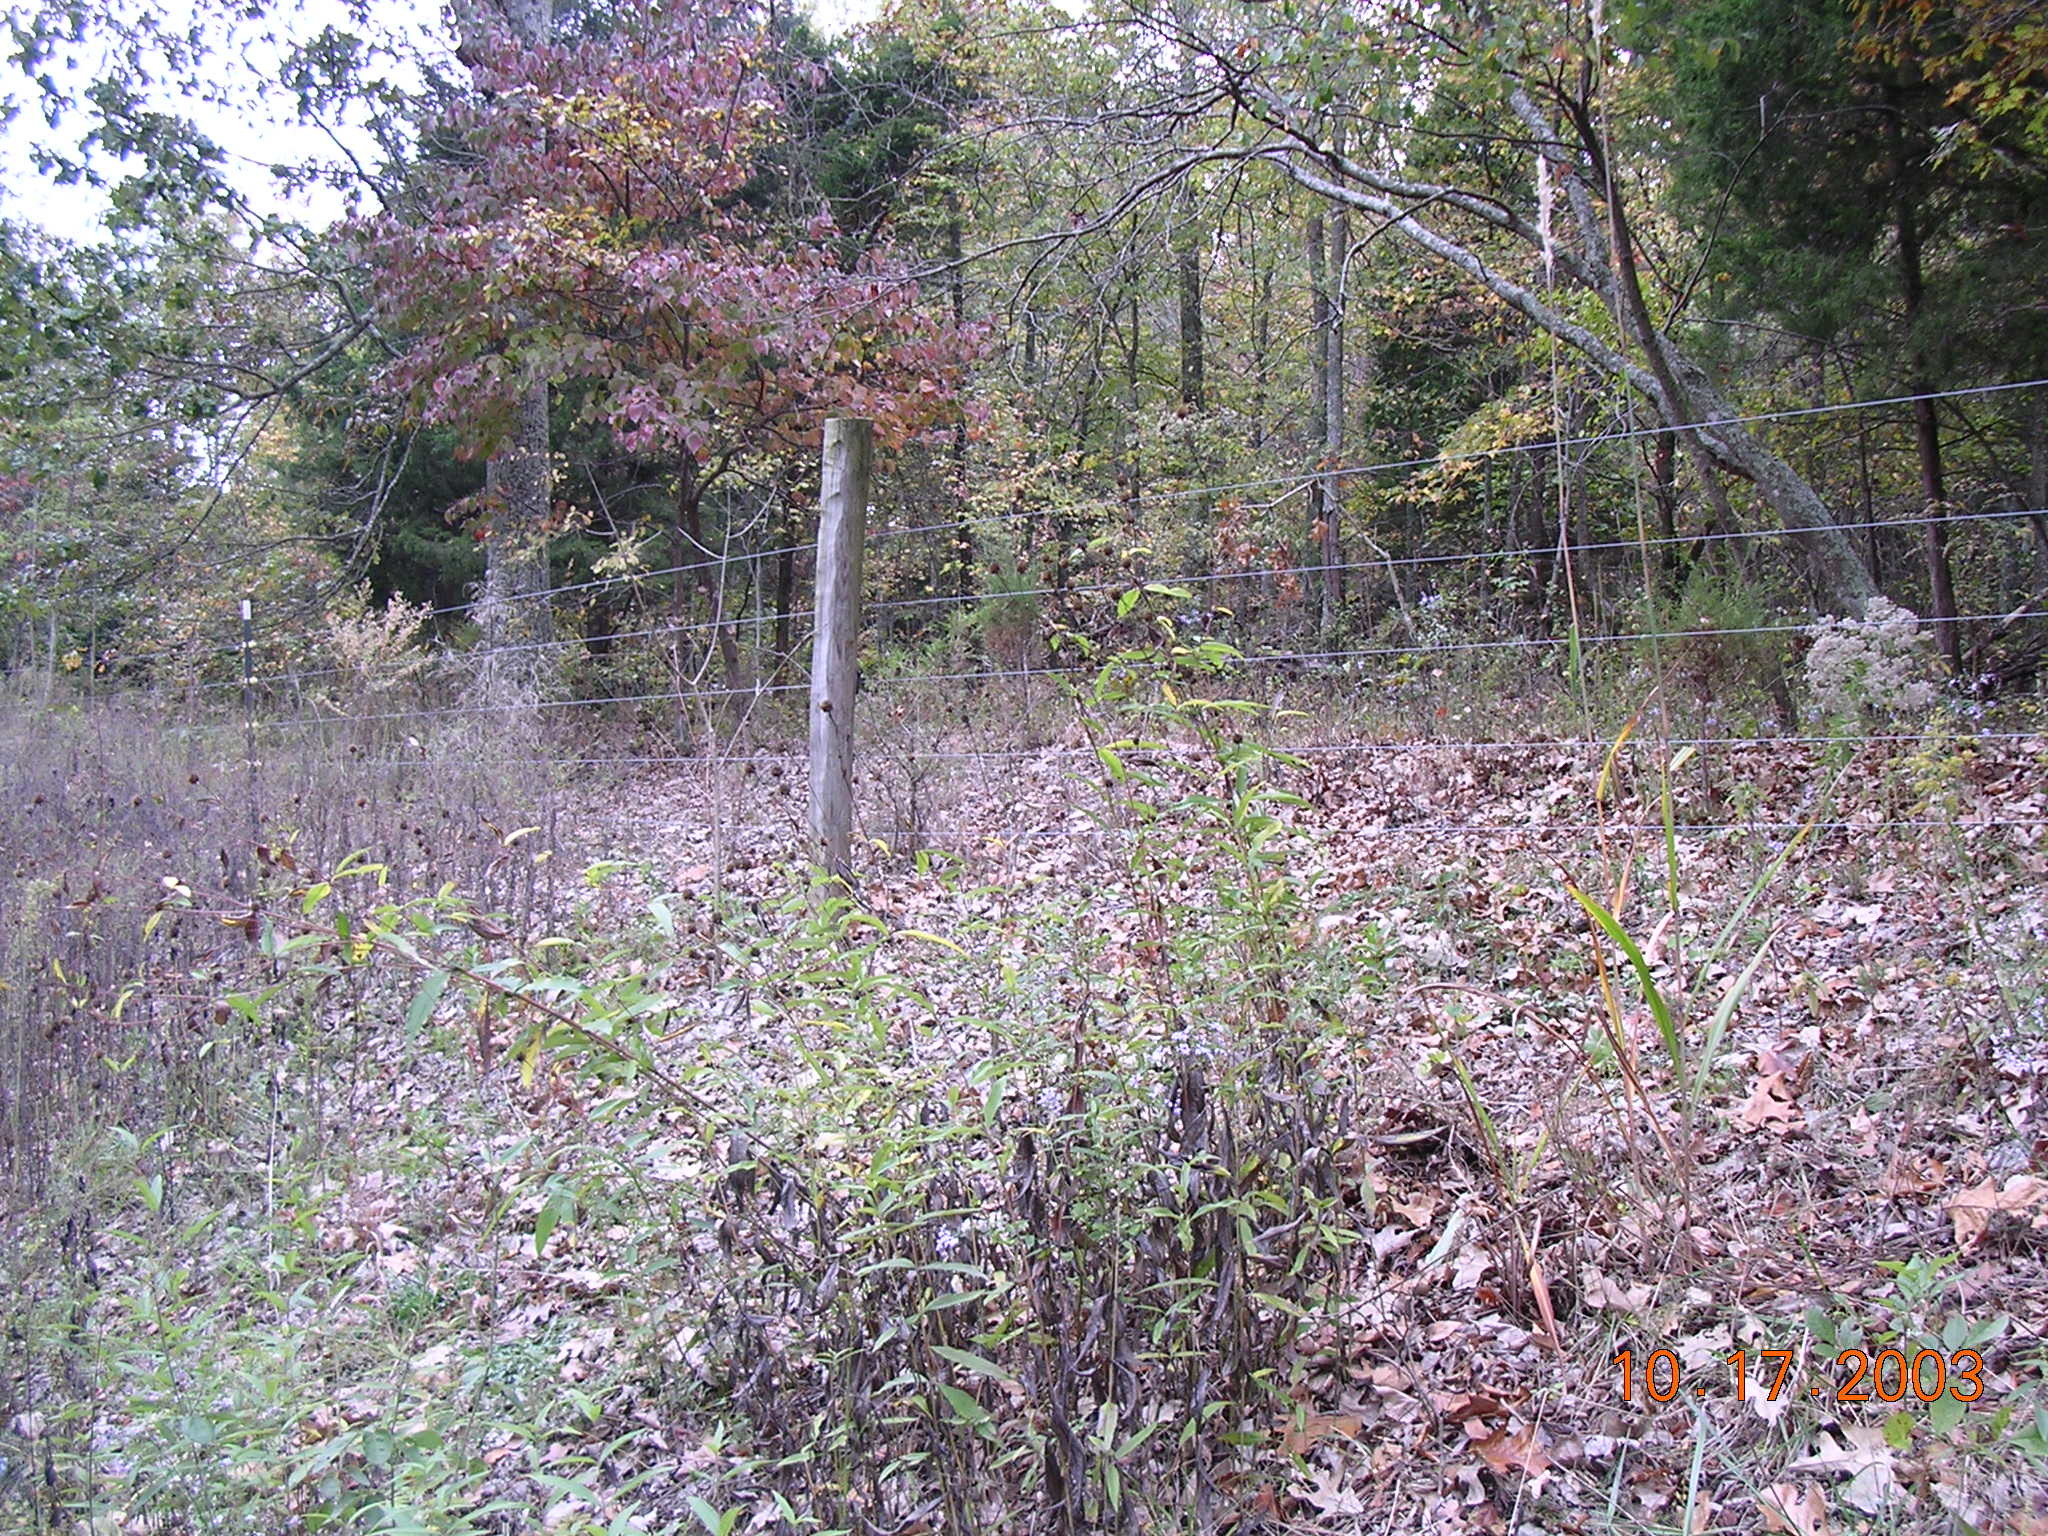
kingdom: Plantae
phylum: Tracheophyta
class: Magnoliopsida
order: Asterales
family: Asteraceae
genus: Helianthus
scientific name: Helianthus eggertii
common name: Eggert's sunflower
